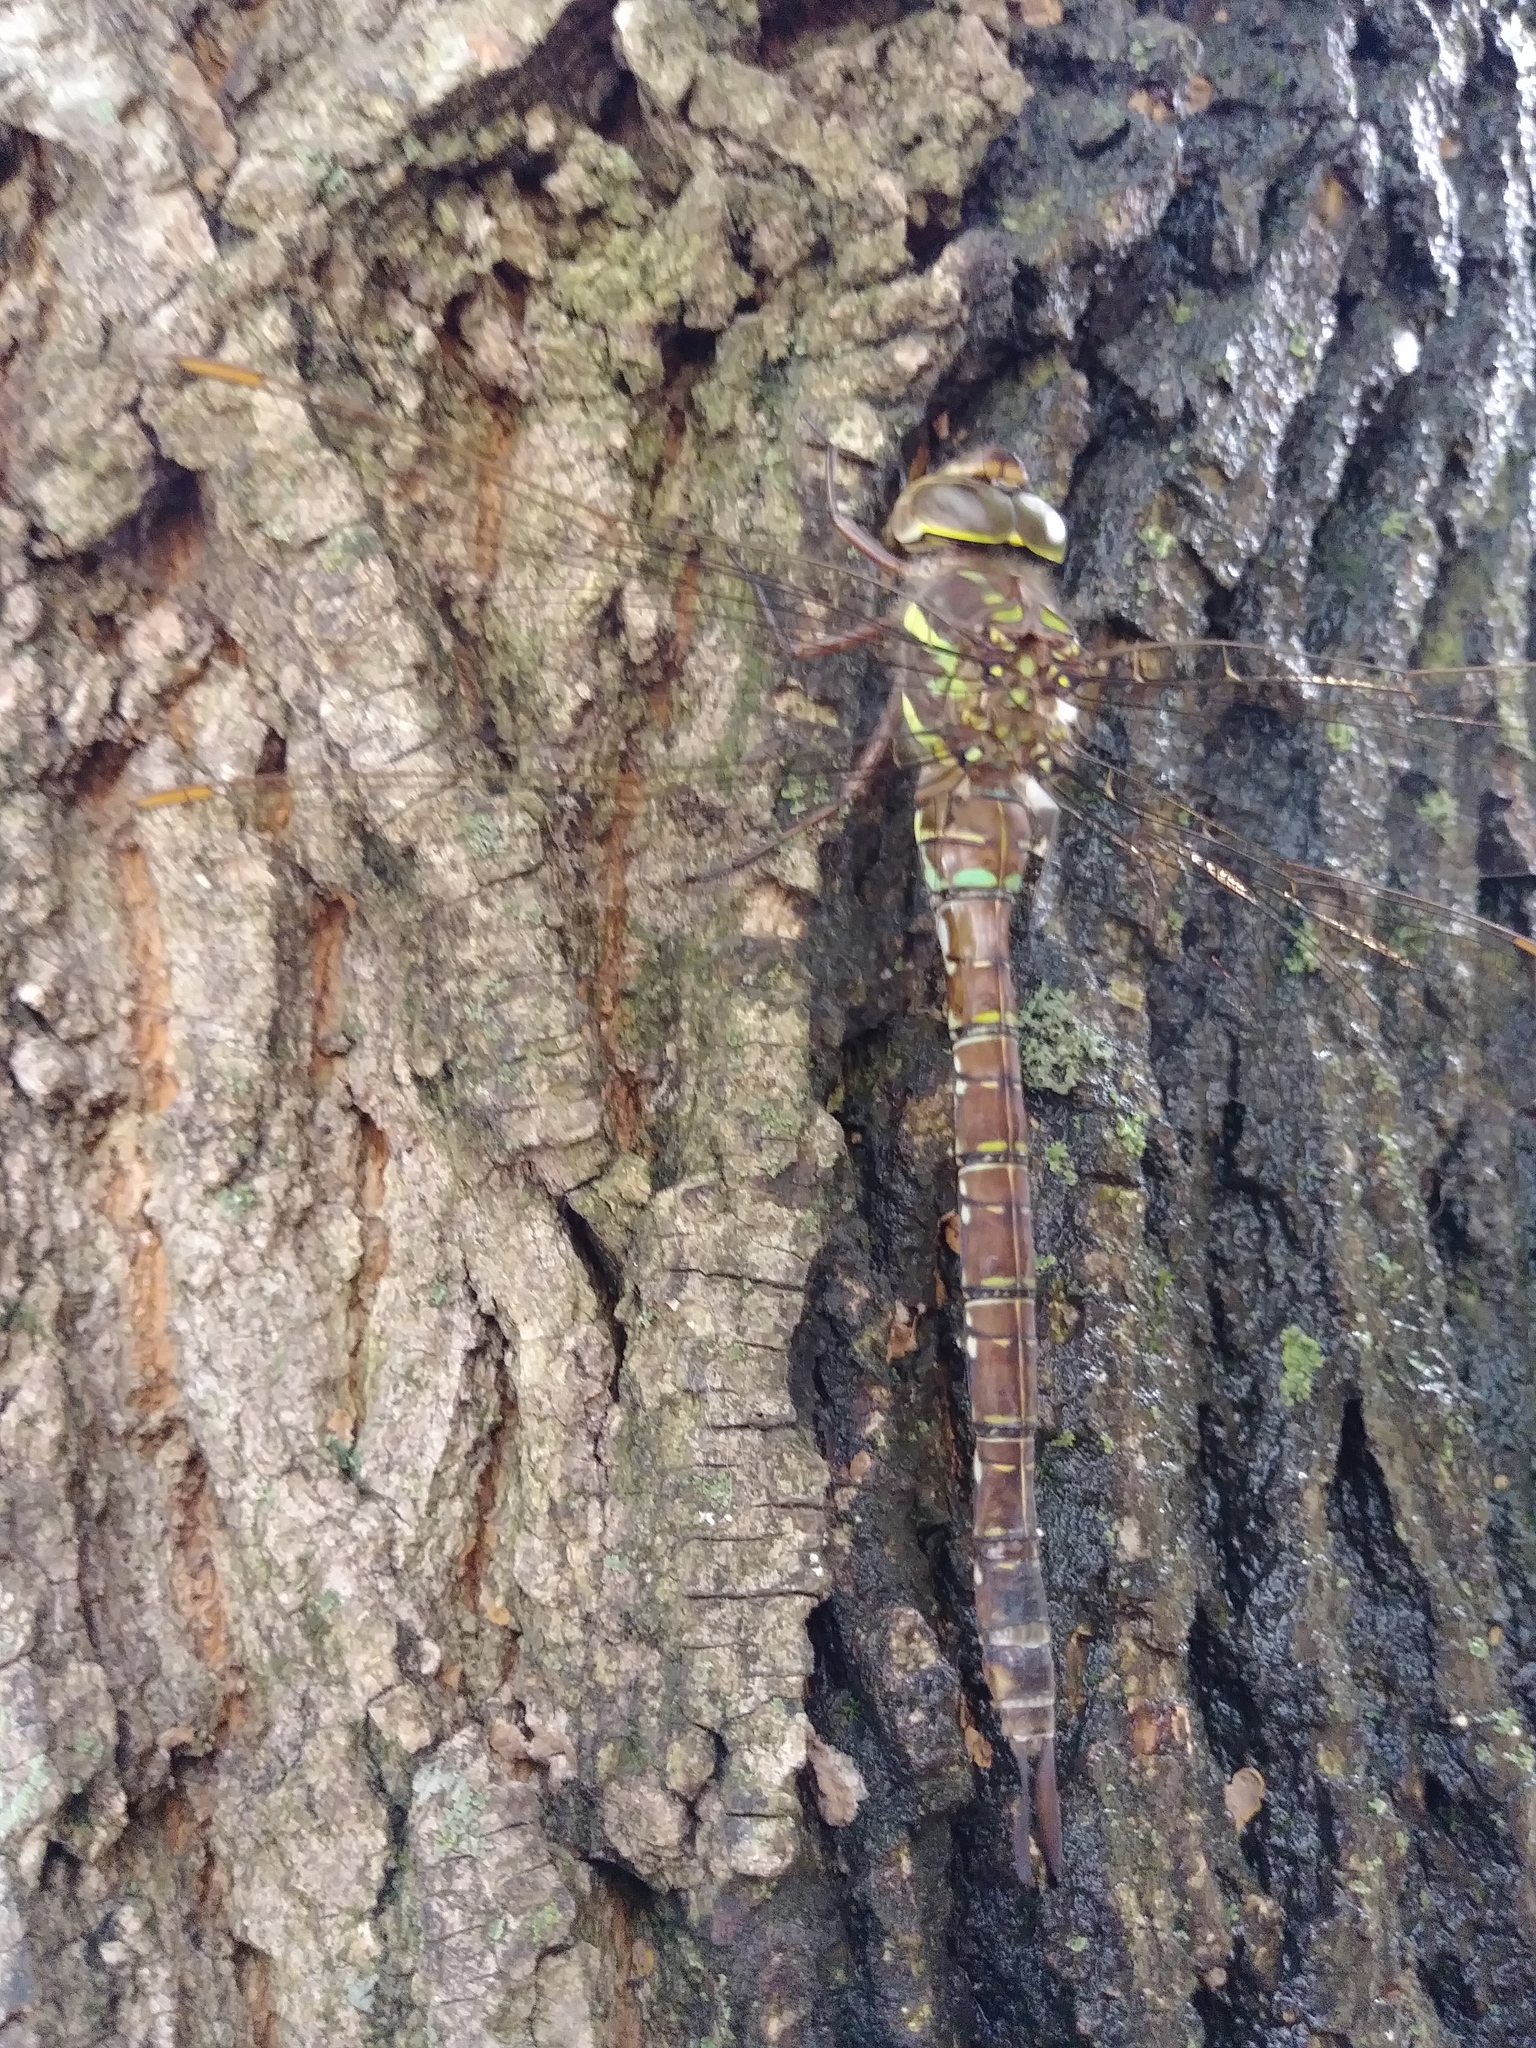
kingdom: Animalia
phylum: Arthropoda
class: Insecta
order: Odonata
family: Aeshnidae
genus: Aeshna
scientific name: Aeshna umbrosa
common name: Shadow darner
